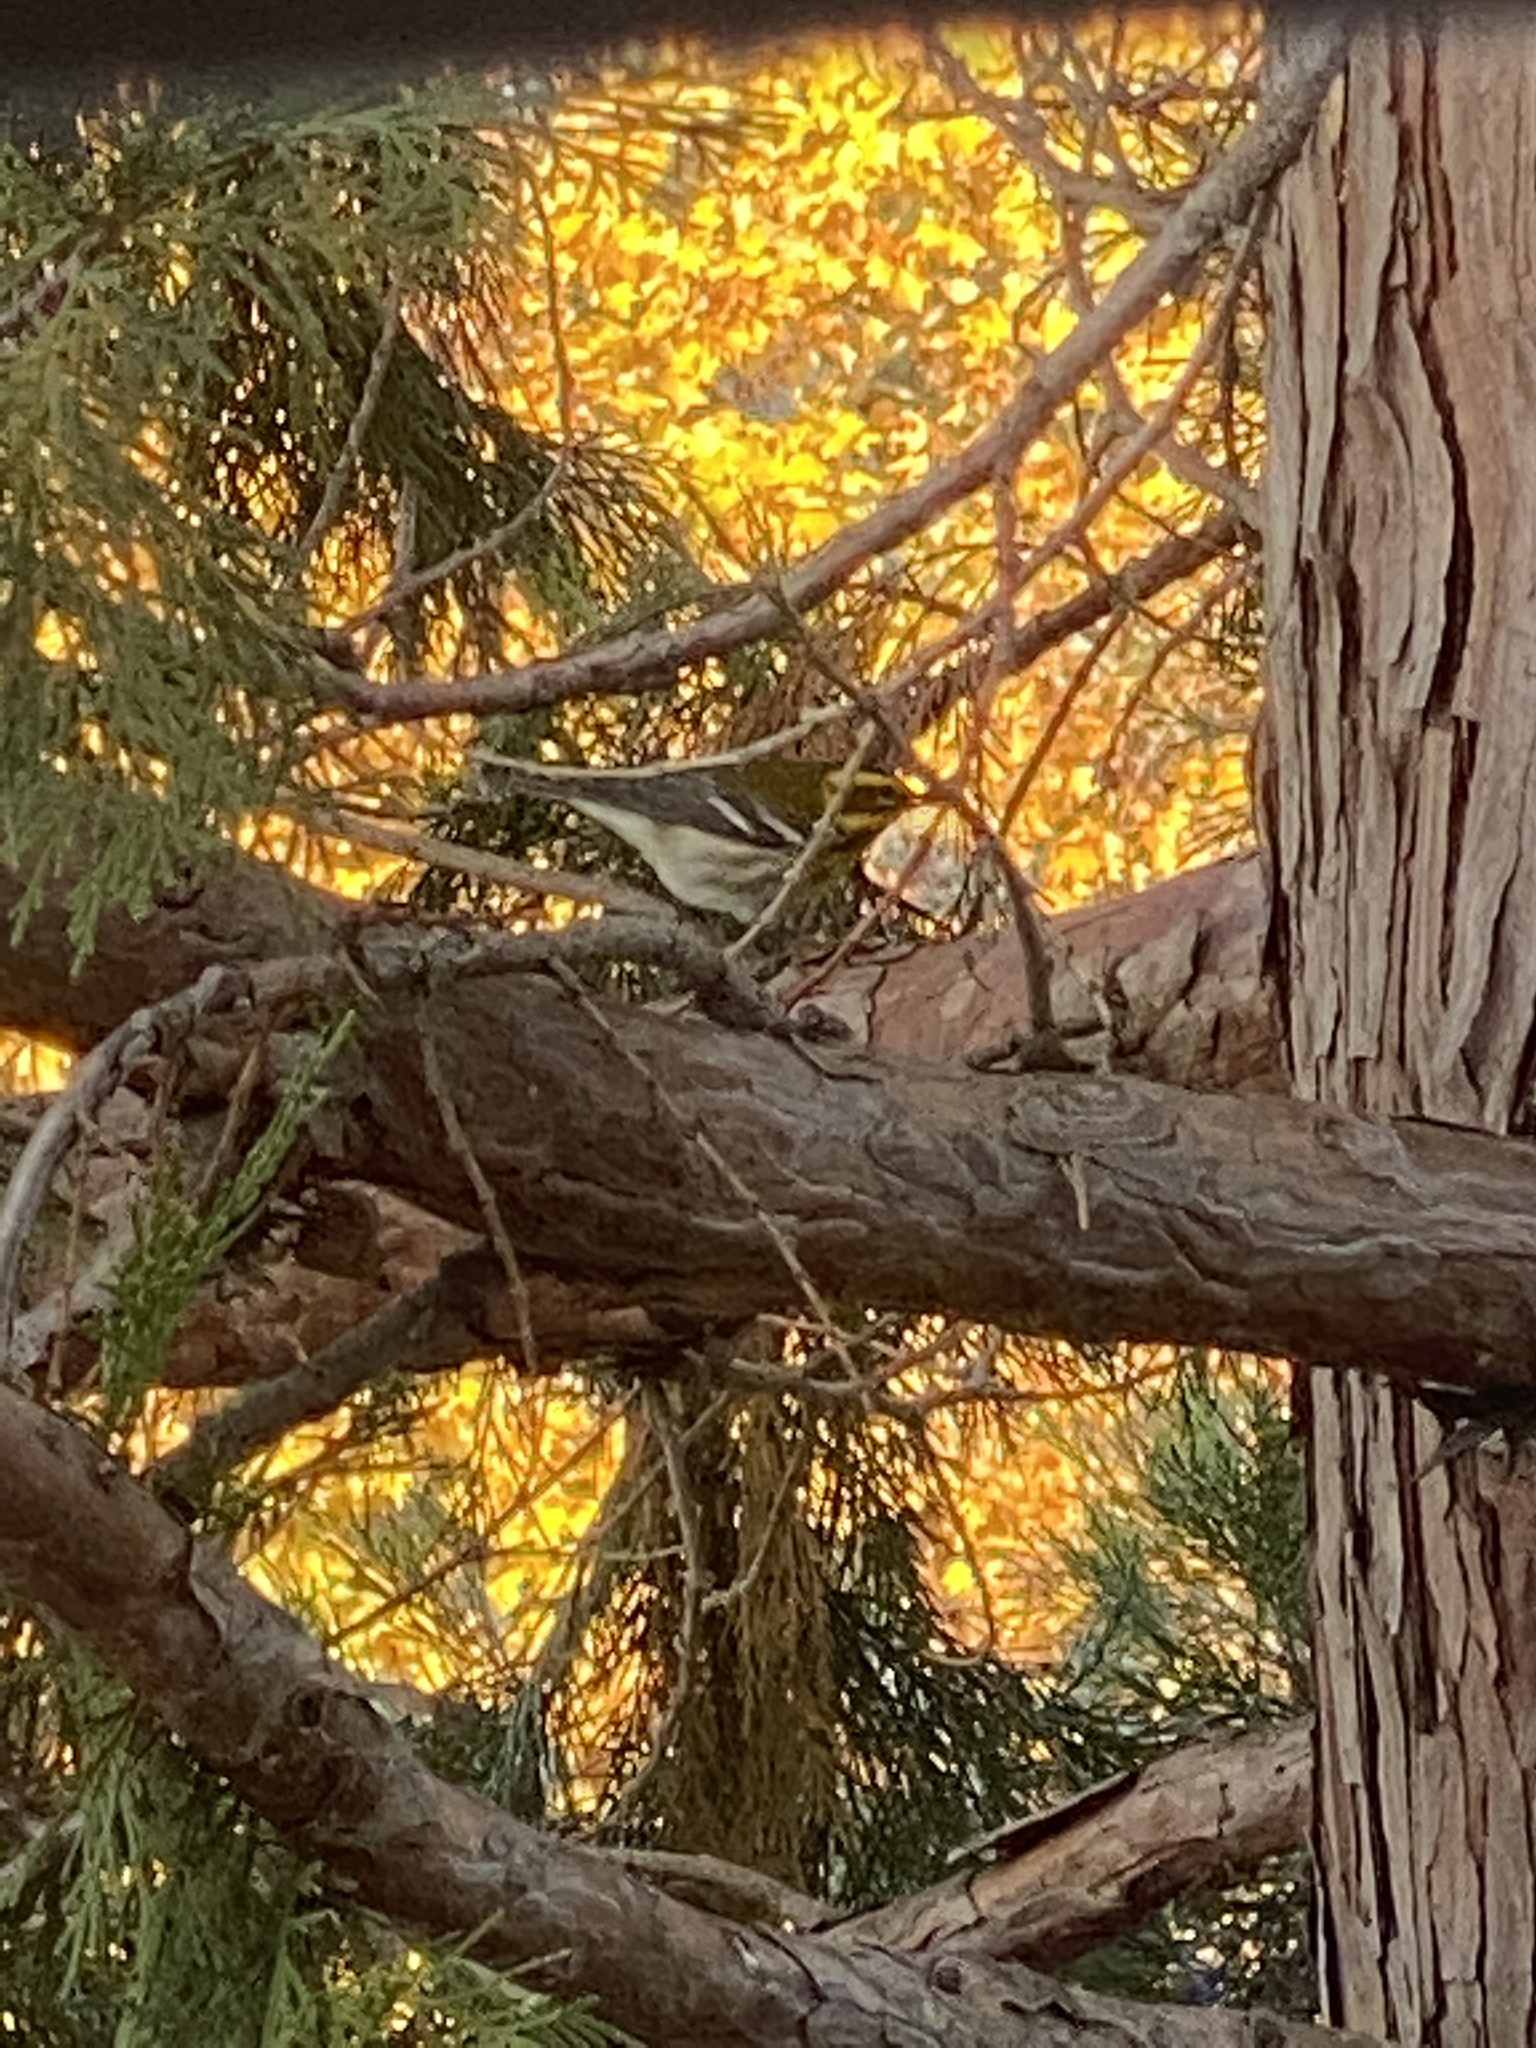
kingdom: Animalia
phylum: Chordata
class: Aves
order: Passeriformes
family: Parulidae
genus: Setophaga
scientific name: Setophaga townsendi
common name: Townsend's warbler
